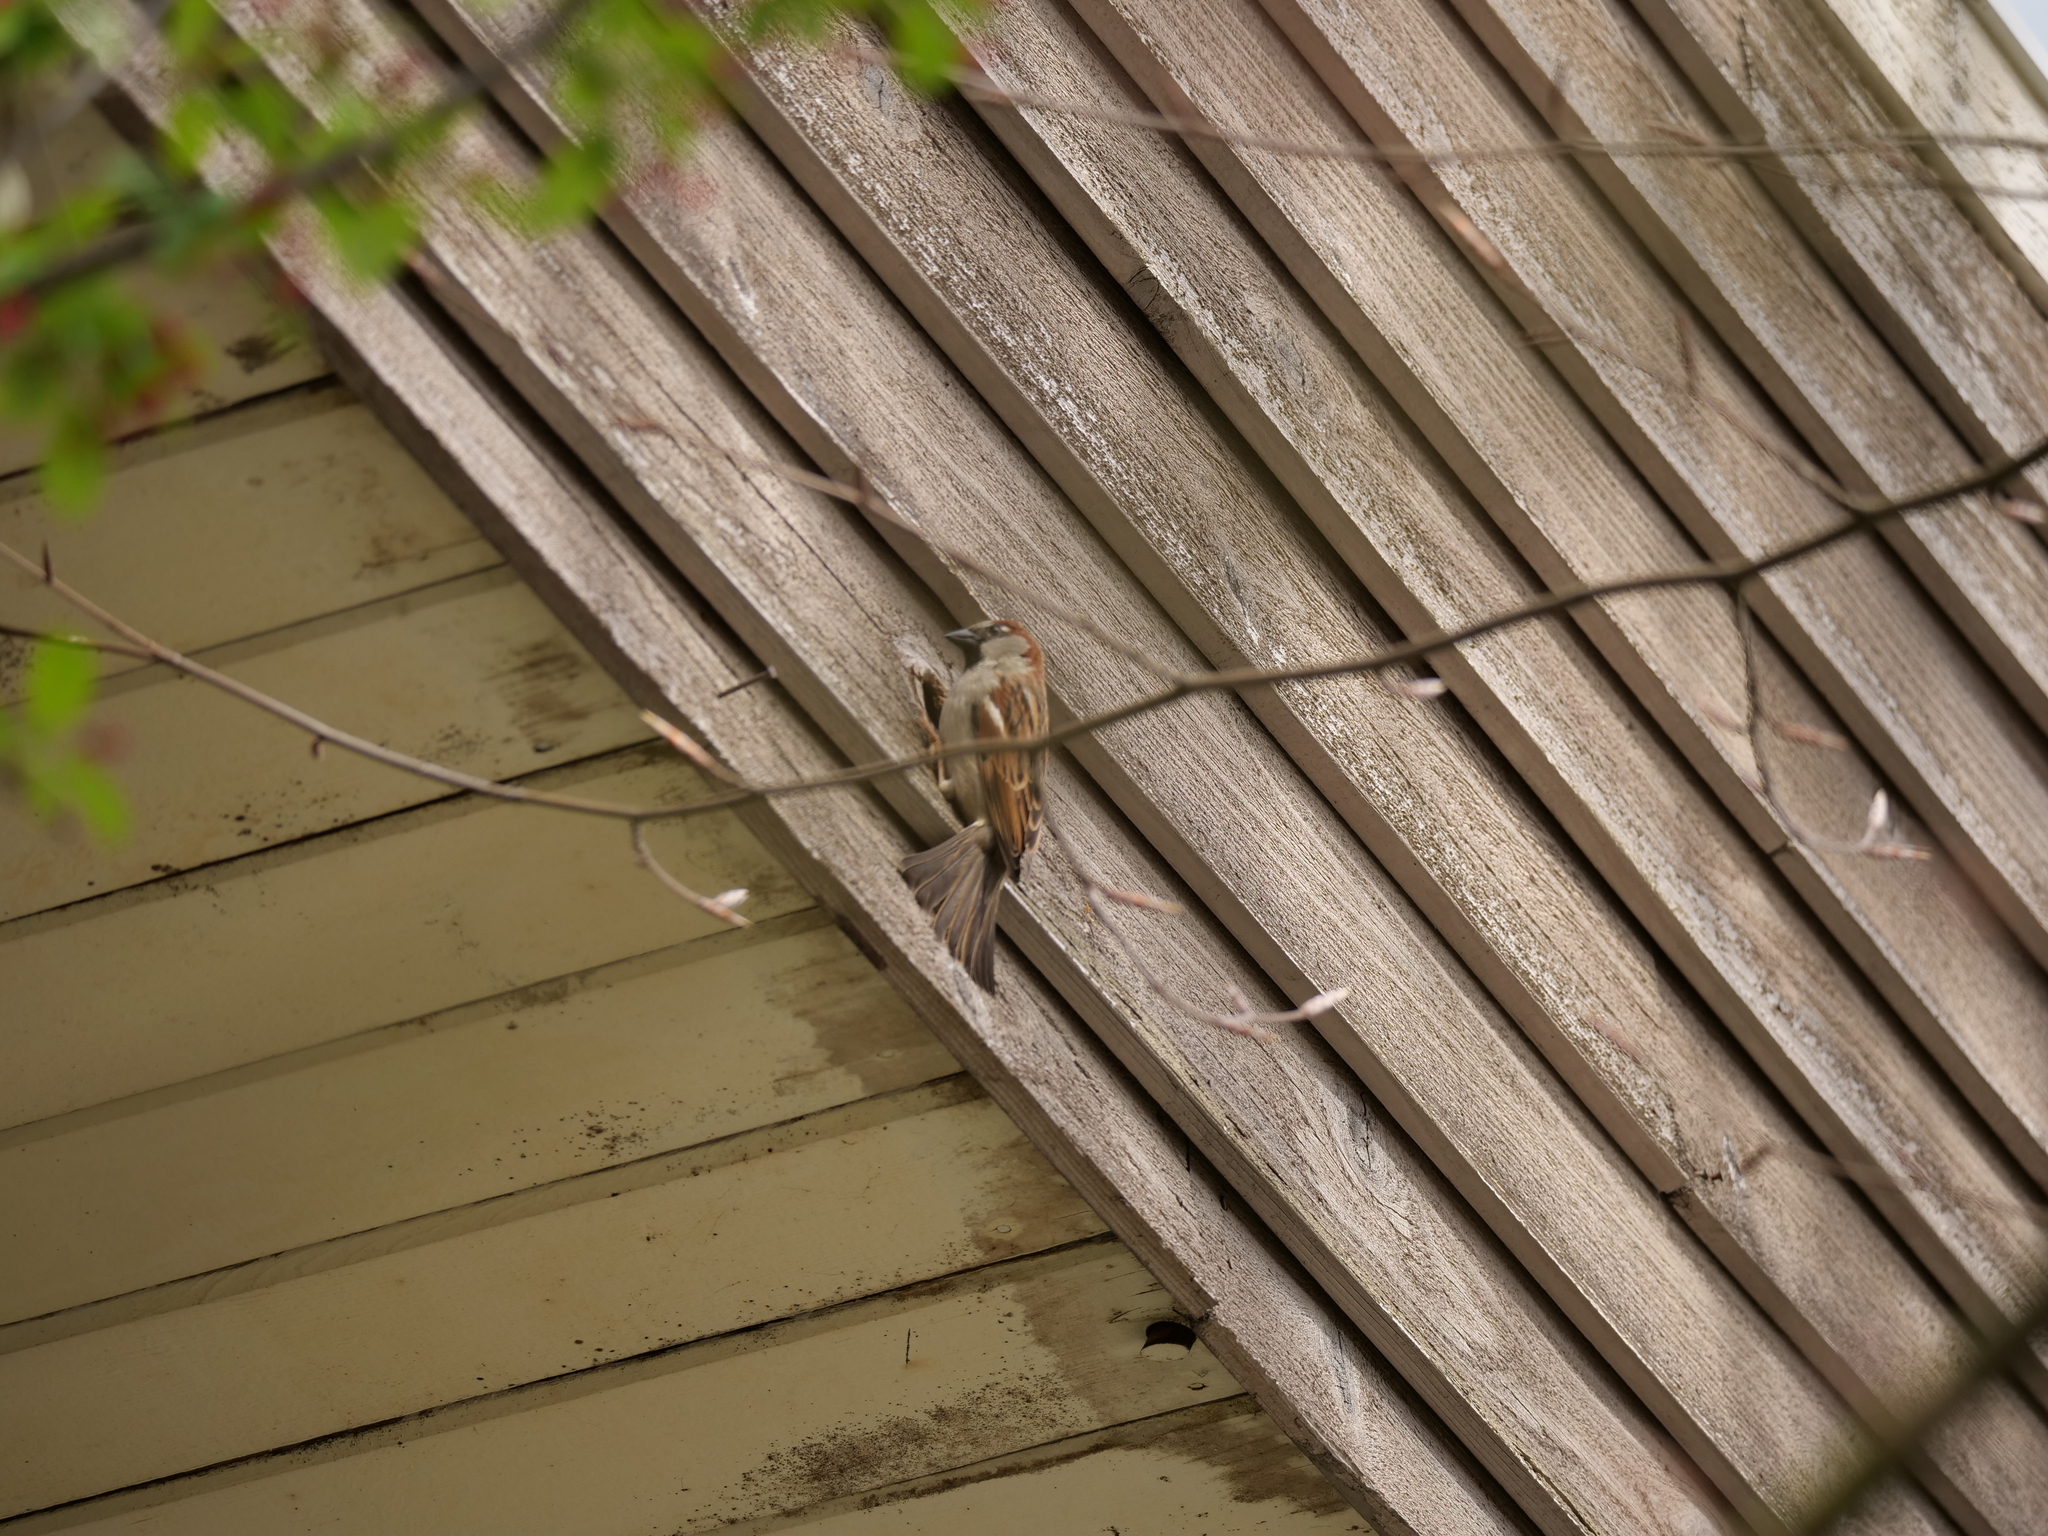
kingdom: Animalia
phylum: Chordata
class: Aves
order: Passeriformes
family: Passeridae
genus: Passer
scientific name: Passer domesticus
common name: House sparrow
